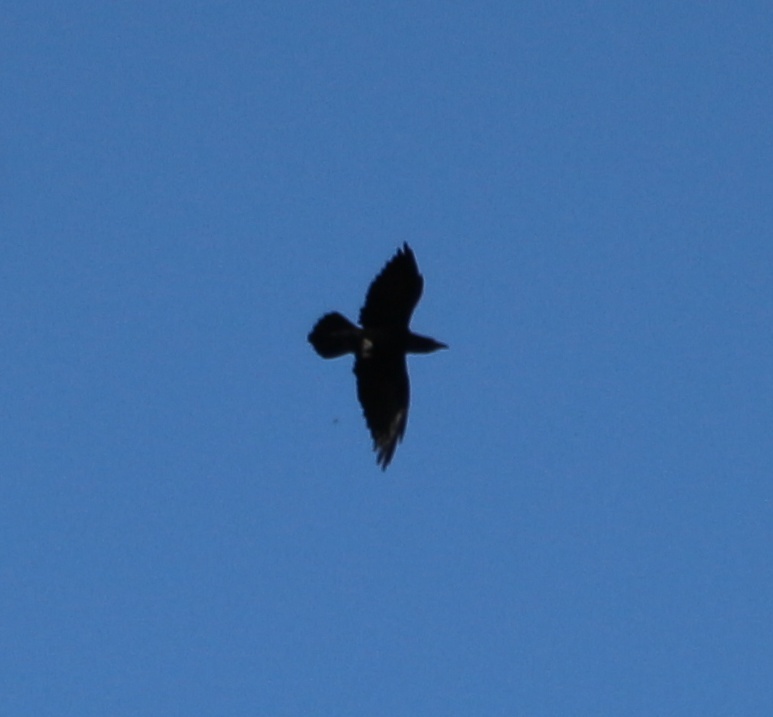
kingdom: Animalia
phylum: Chordata
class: Aves
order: Passeriformes
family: Corvidae
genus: Corvus
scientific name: Corvus corax
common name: Common raven
